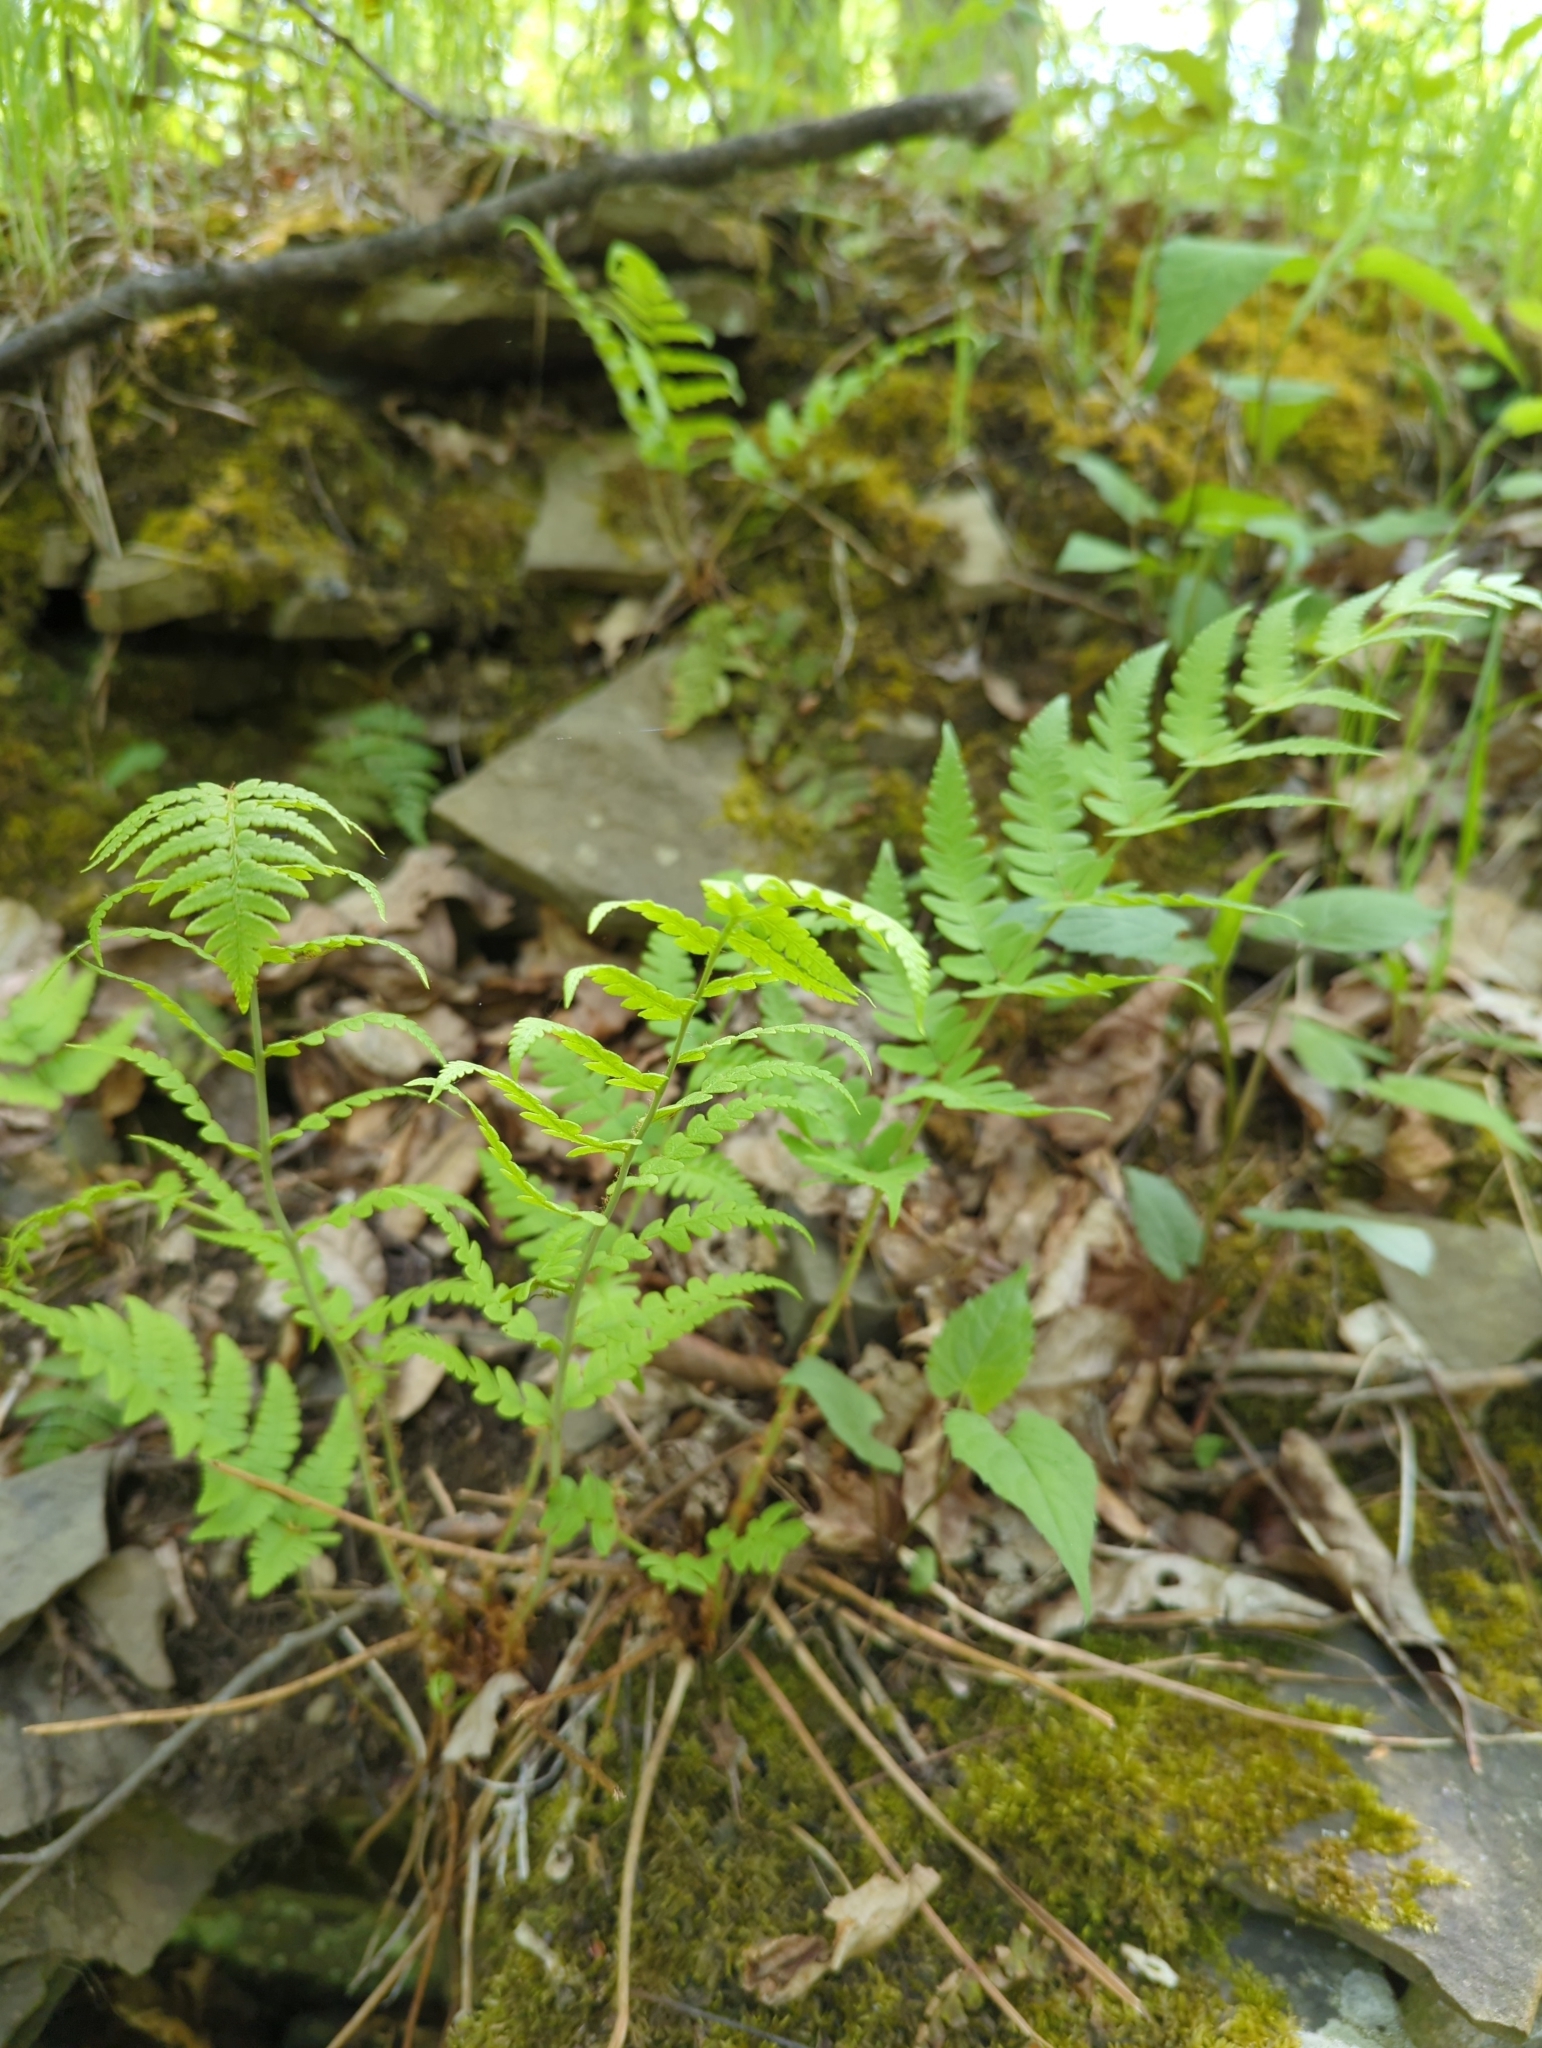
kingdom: Plantae
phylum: Tracheophyta
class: Polypodiopsida
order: Polypodiales
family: Dryopteridaceae
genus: Dryopteris
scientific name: Dryopteris marginalis
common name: Marginal wood fern
